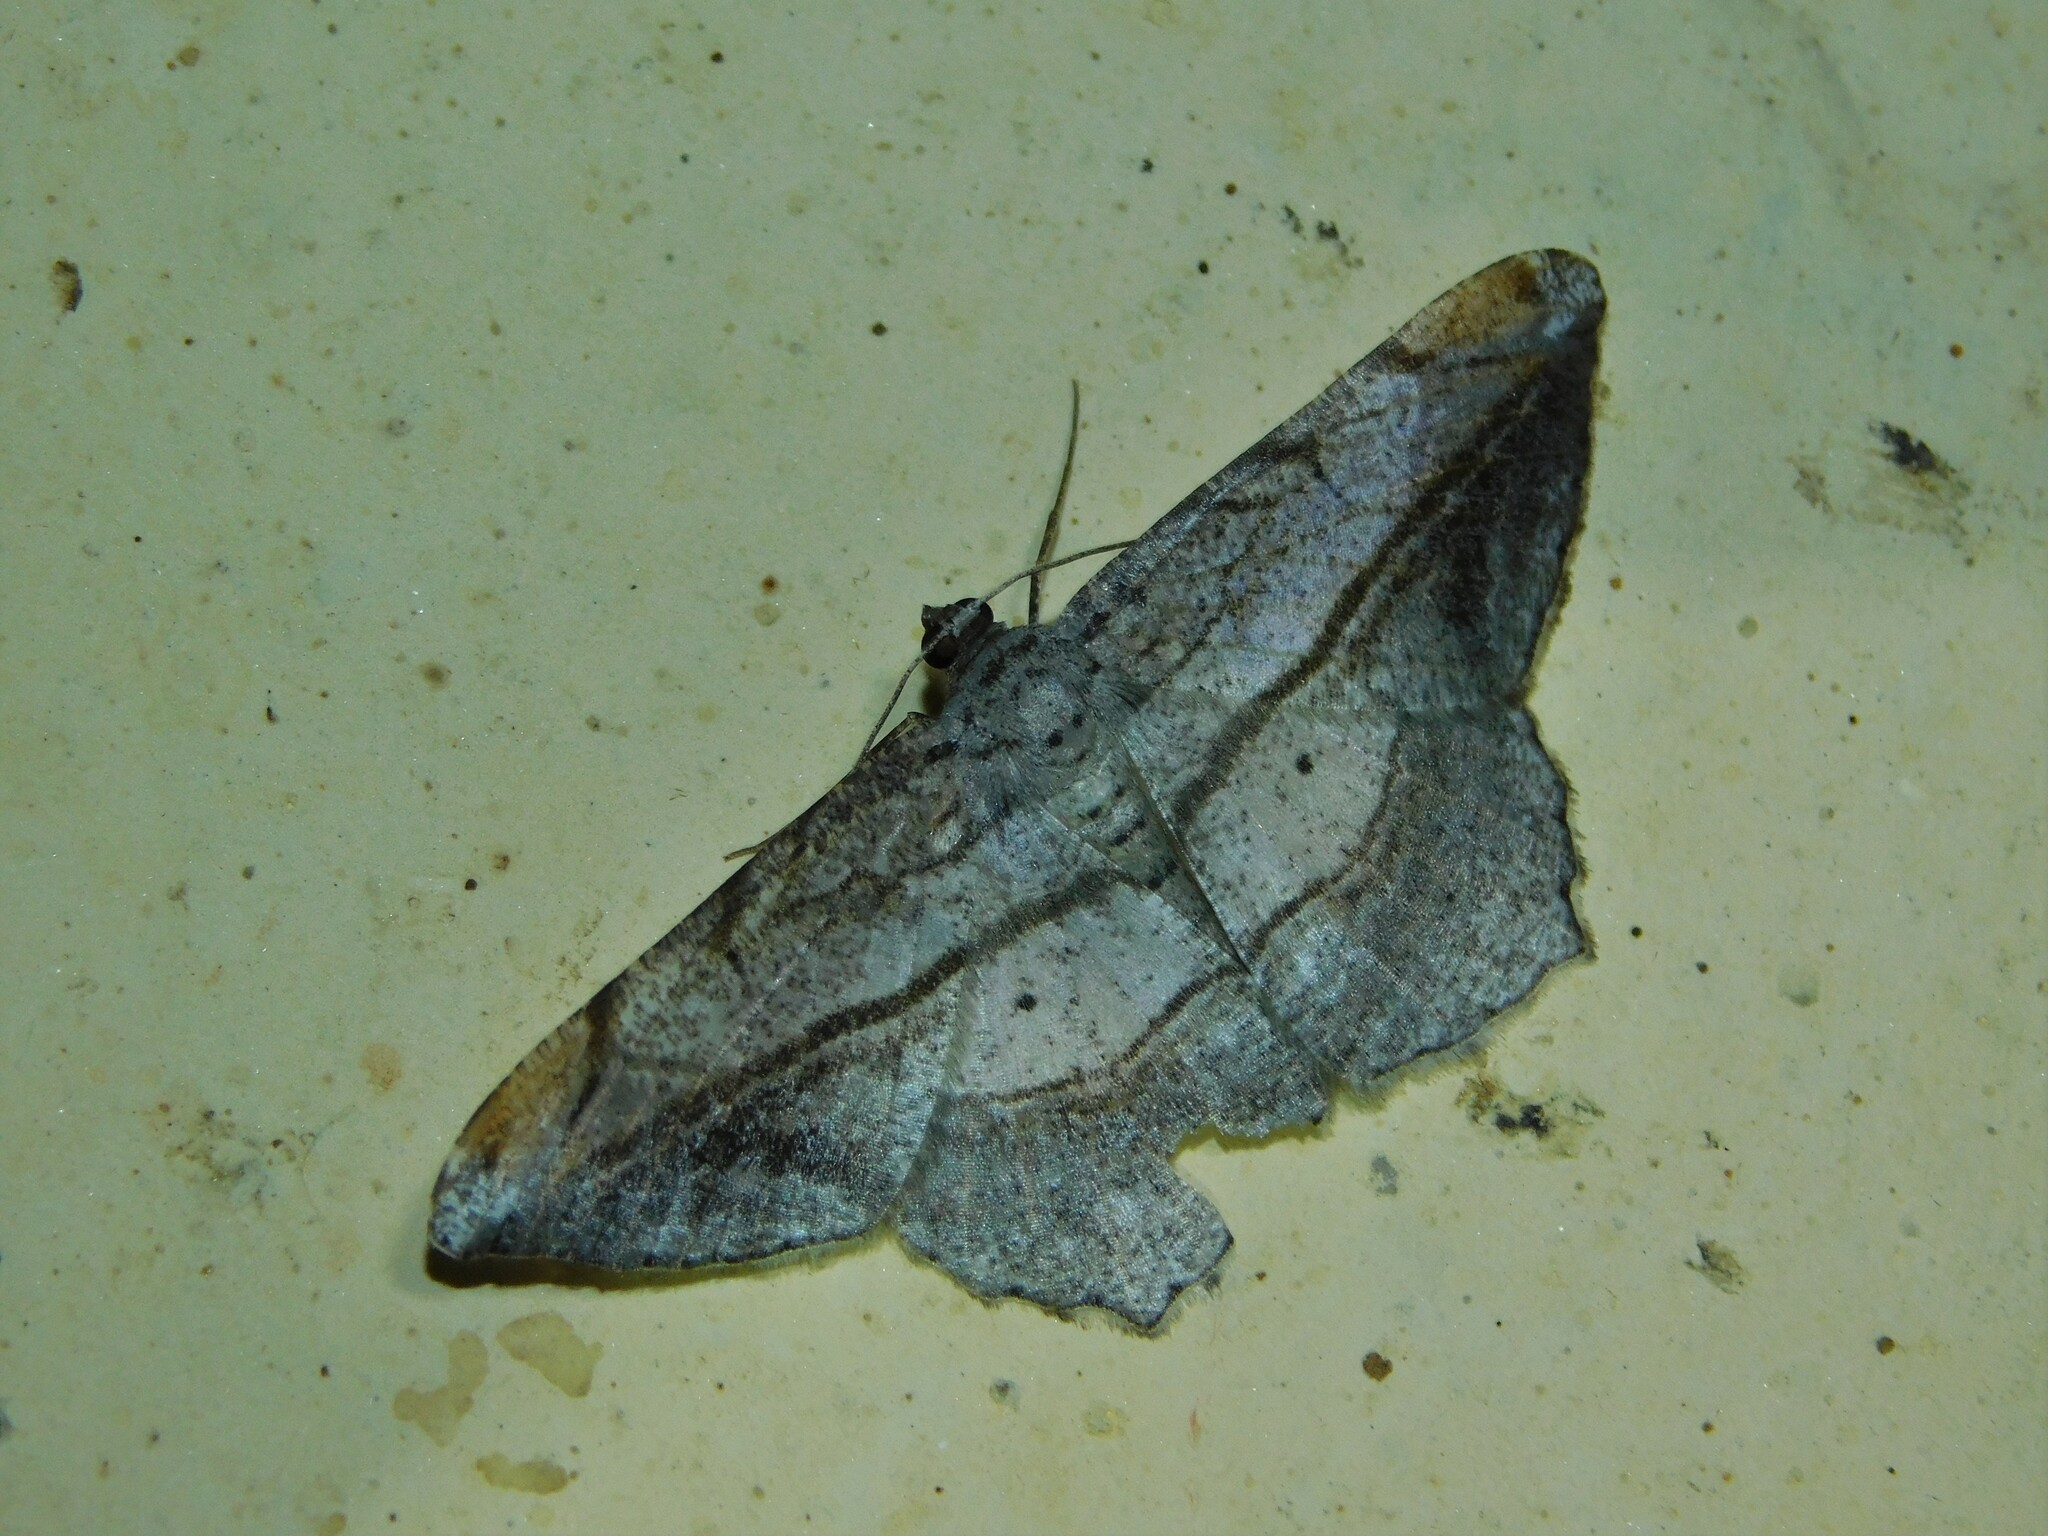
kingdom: Animalia
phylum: Arthropoda
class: Insecta
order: Lepidoptera
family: Geometridae
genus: Chiasmia
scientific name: Chiasmia fulvisparsa
